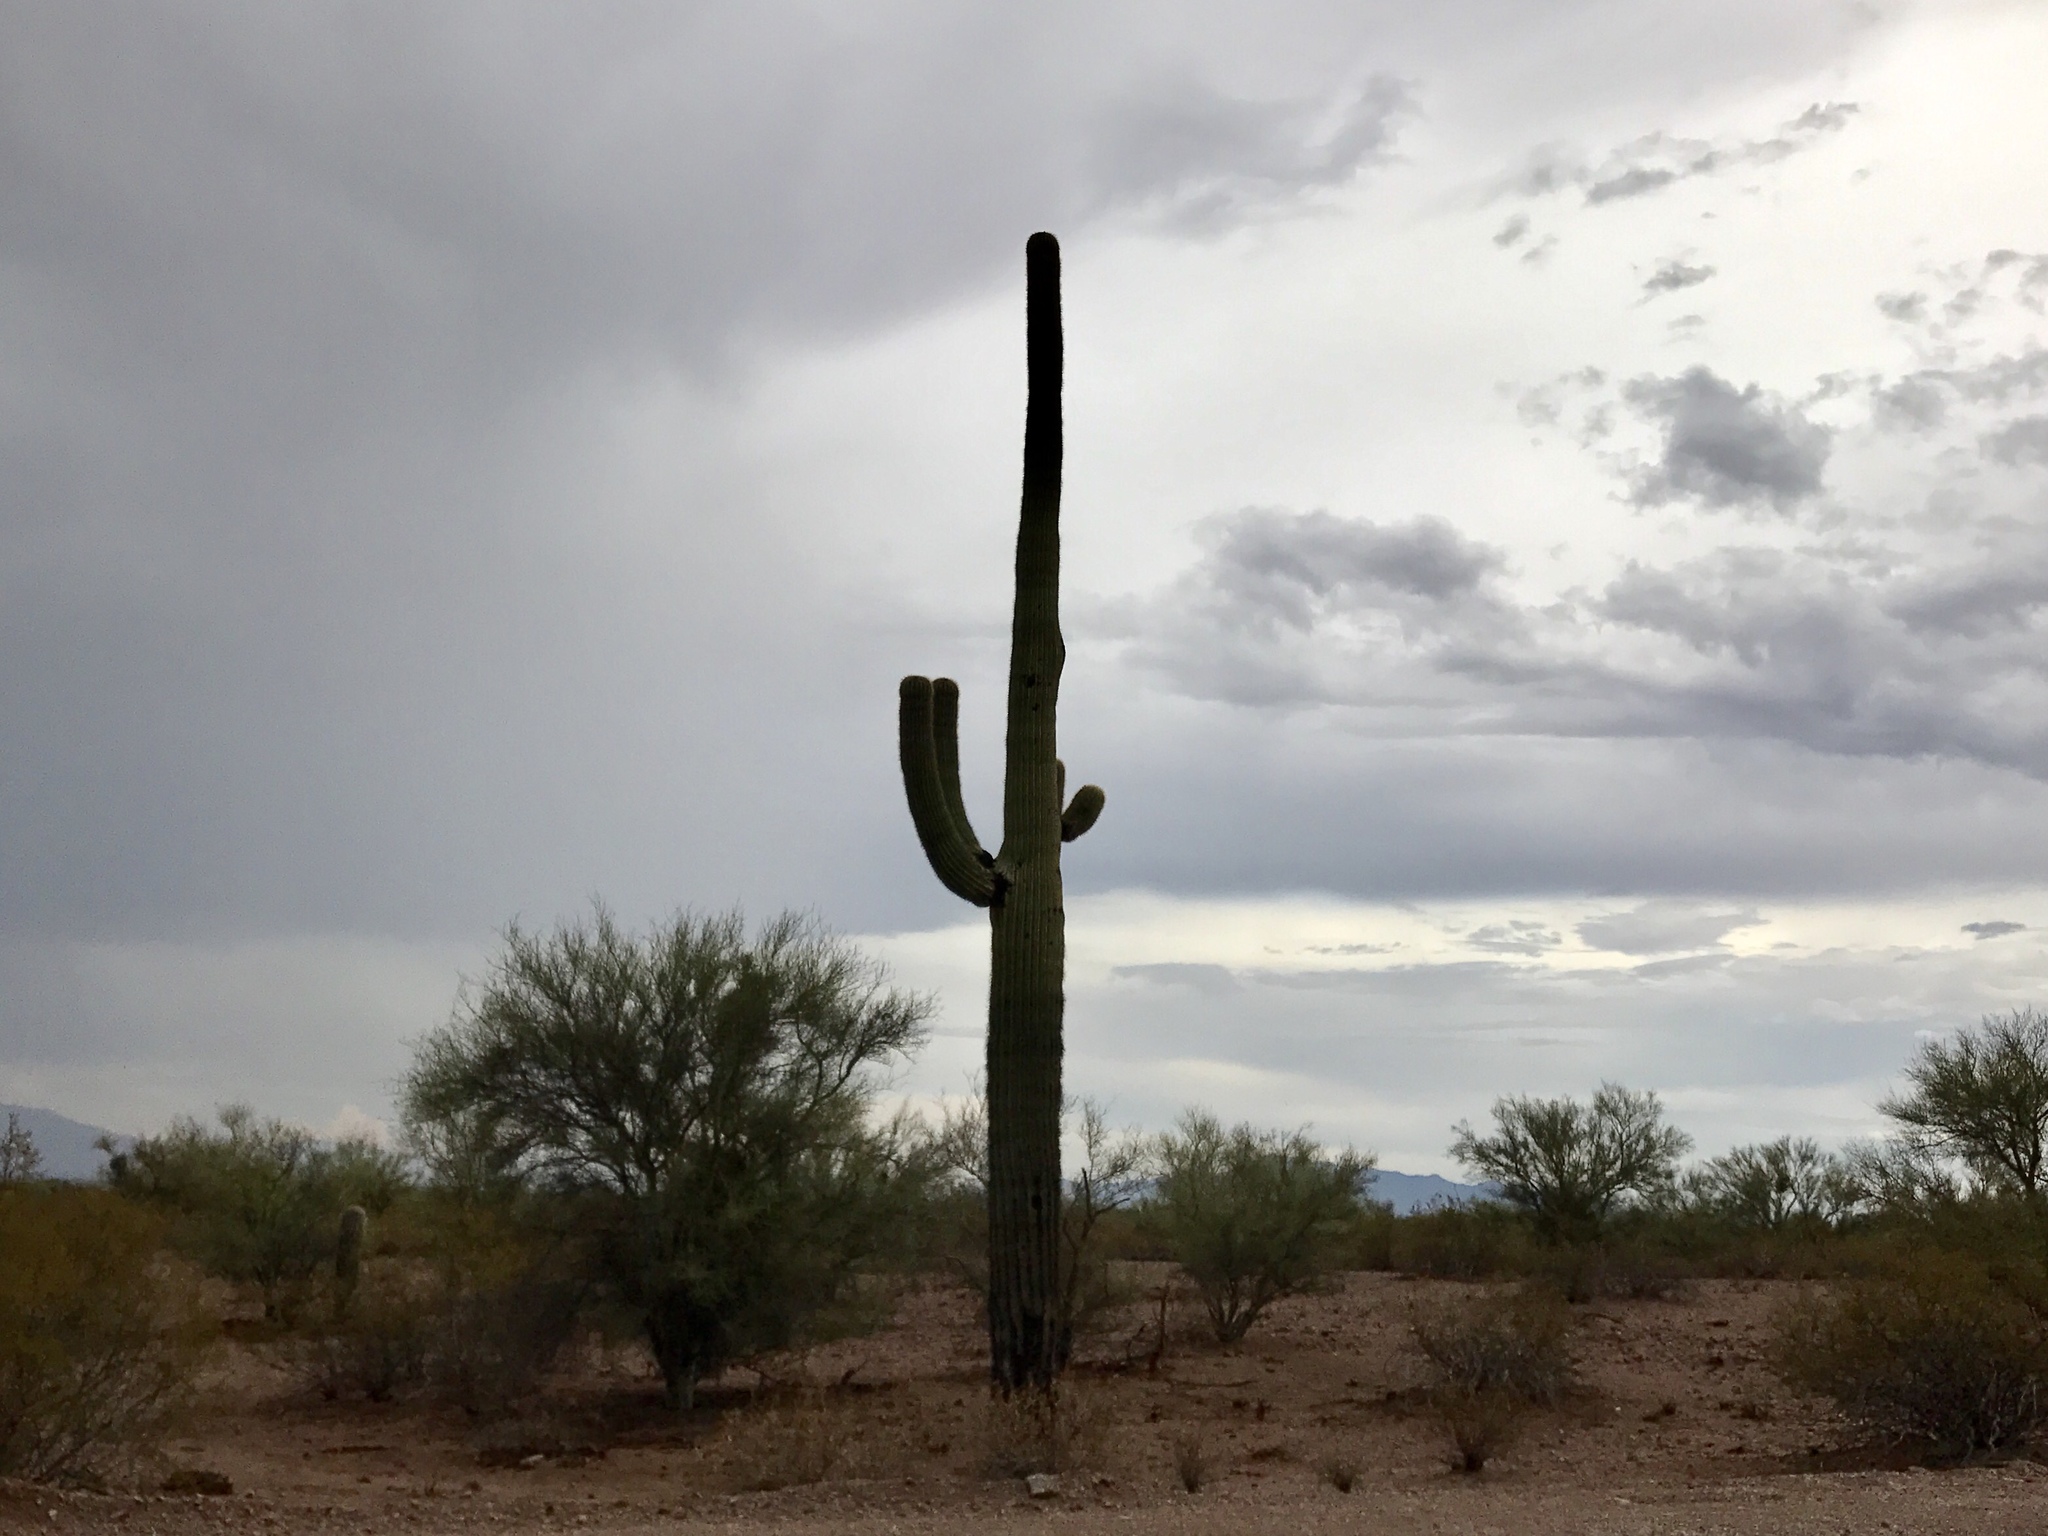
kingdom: Plantae
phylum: Tracheophyta
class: Magnoliopsida
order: Caryophyllales
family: Cactaceae
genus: Carnegiea
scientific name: Carnegiea gigantea
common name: Saguaro
